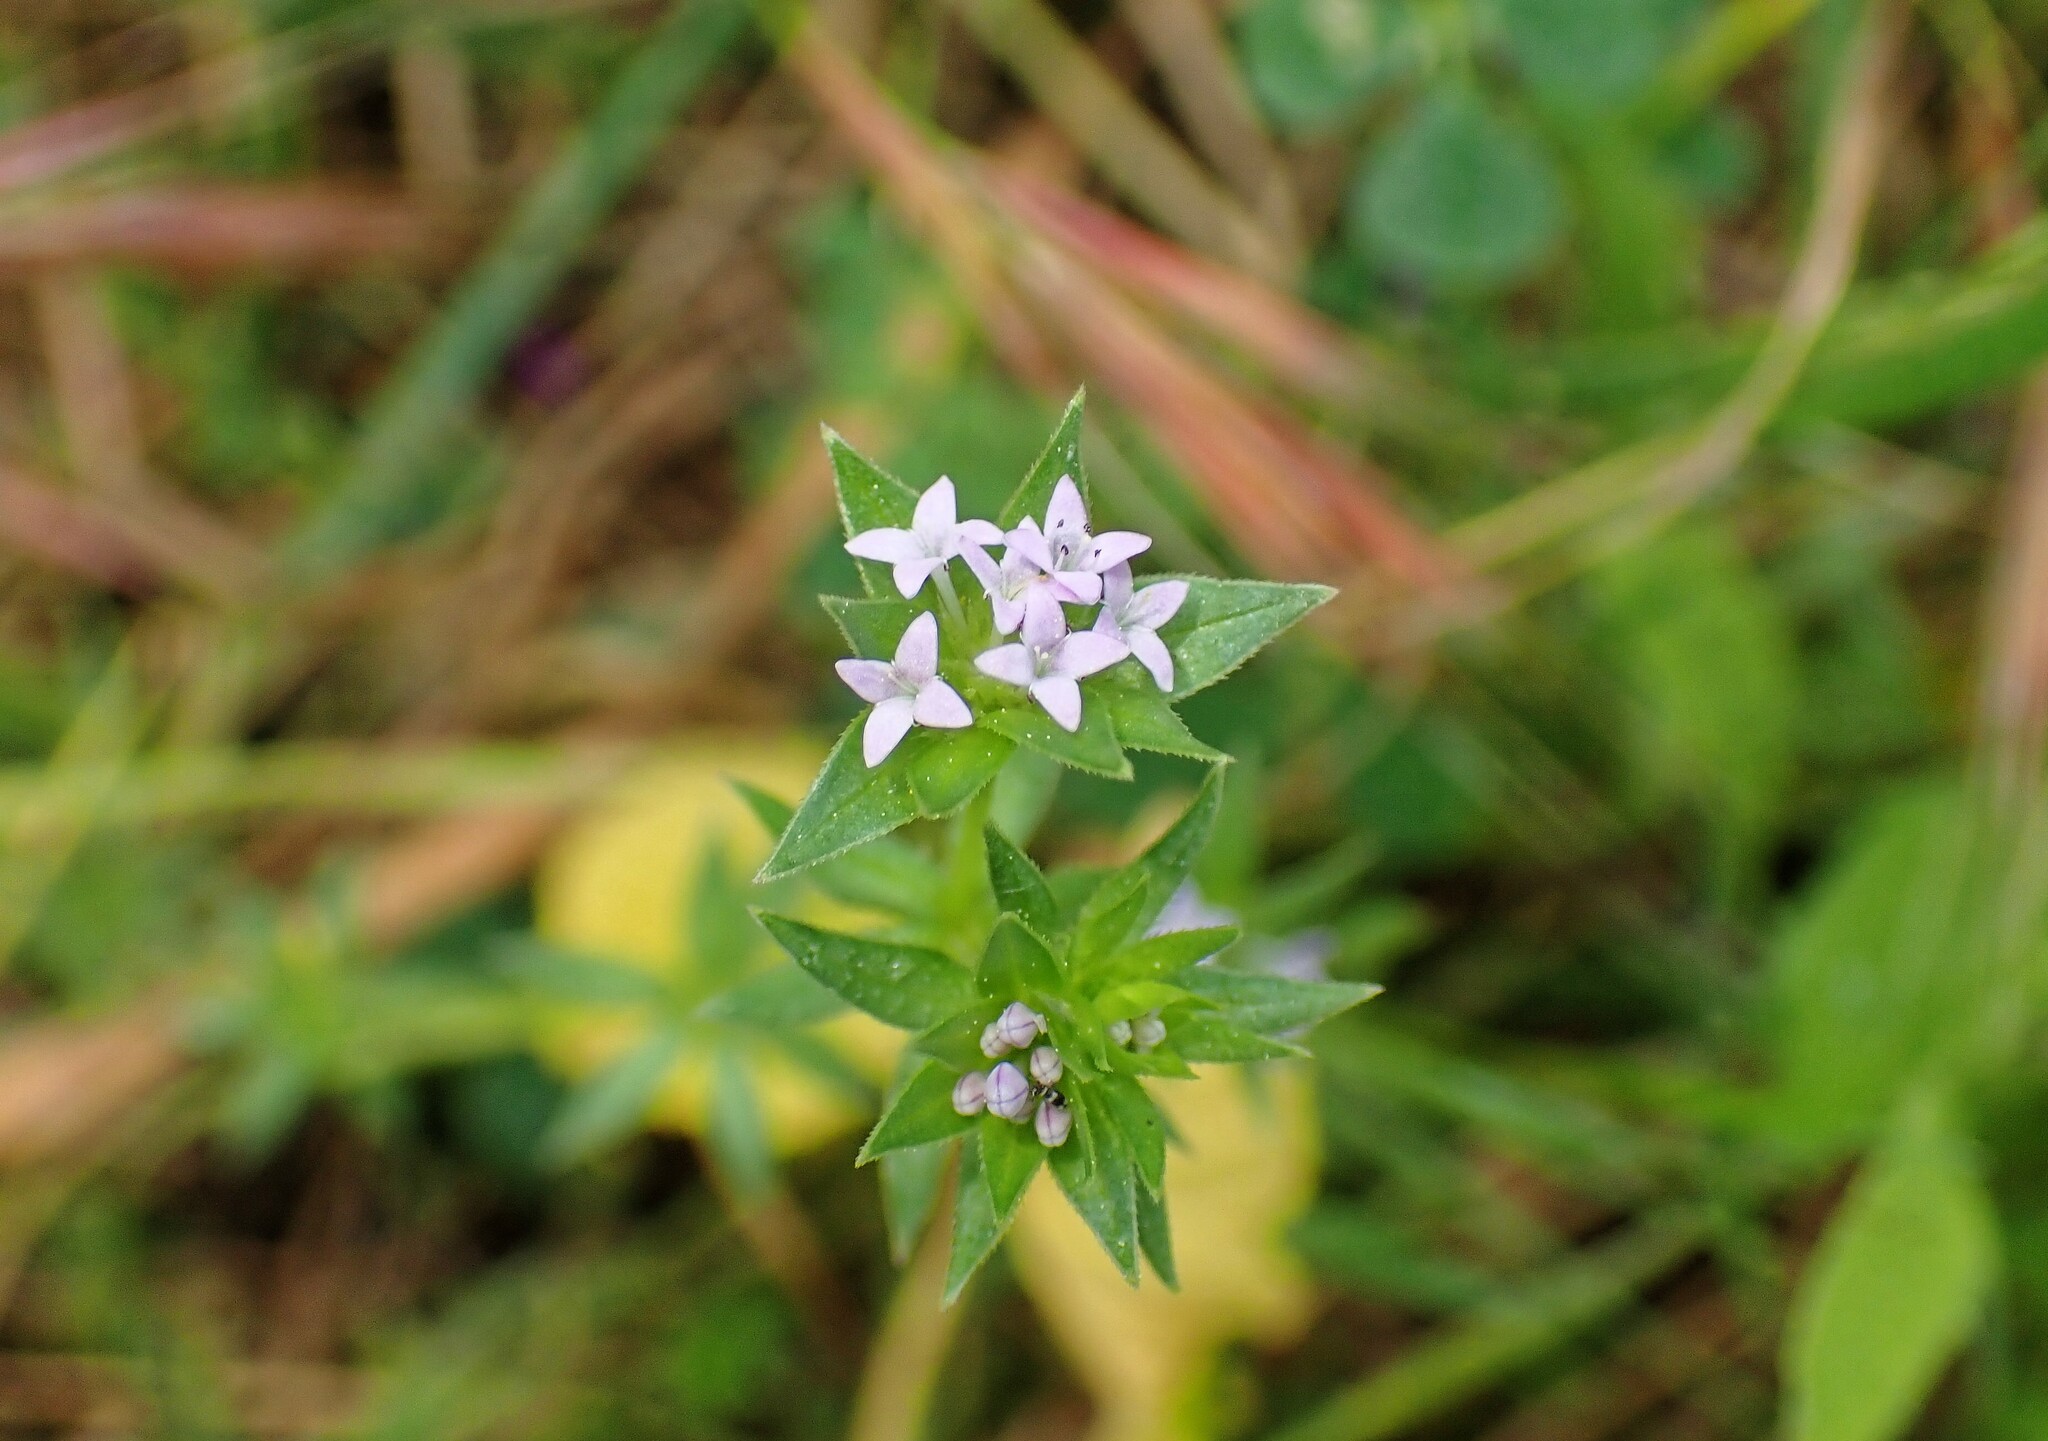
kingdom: Plantae
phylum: Tracheophyta
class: Magnoliopsida
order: Gentianales
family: Rubiaceae
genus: Sherardia
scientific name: Sherardia arvensis
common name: Field madder
